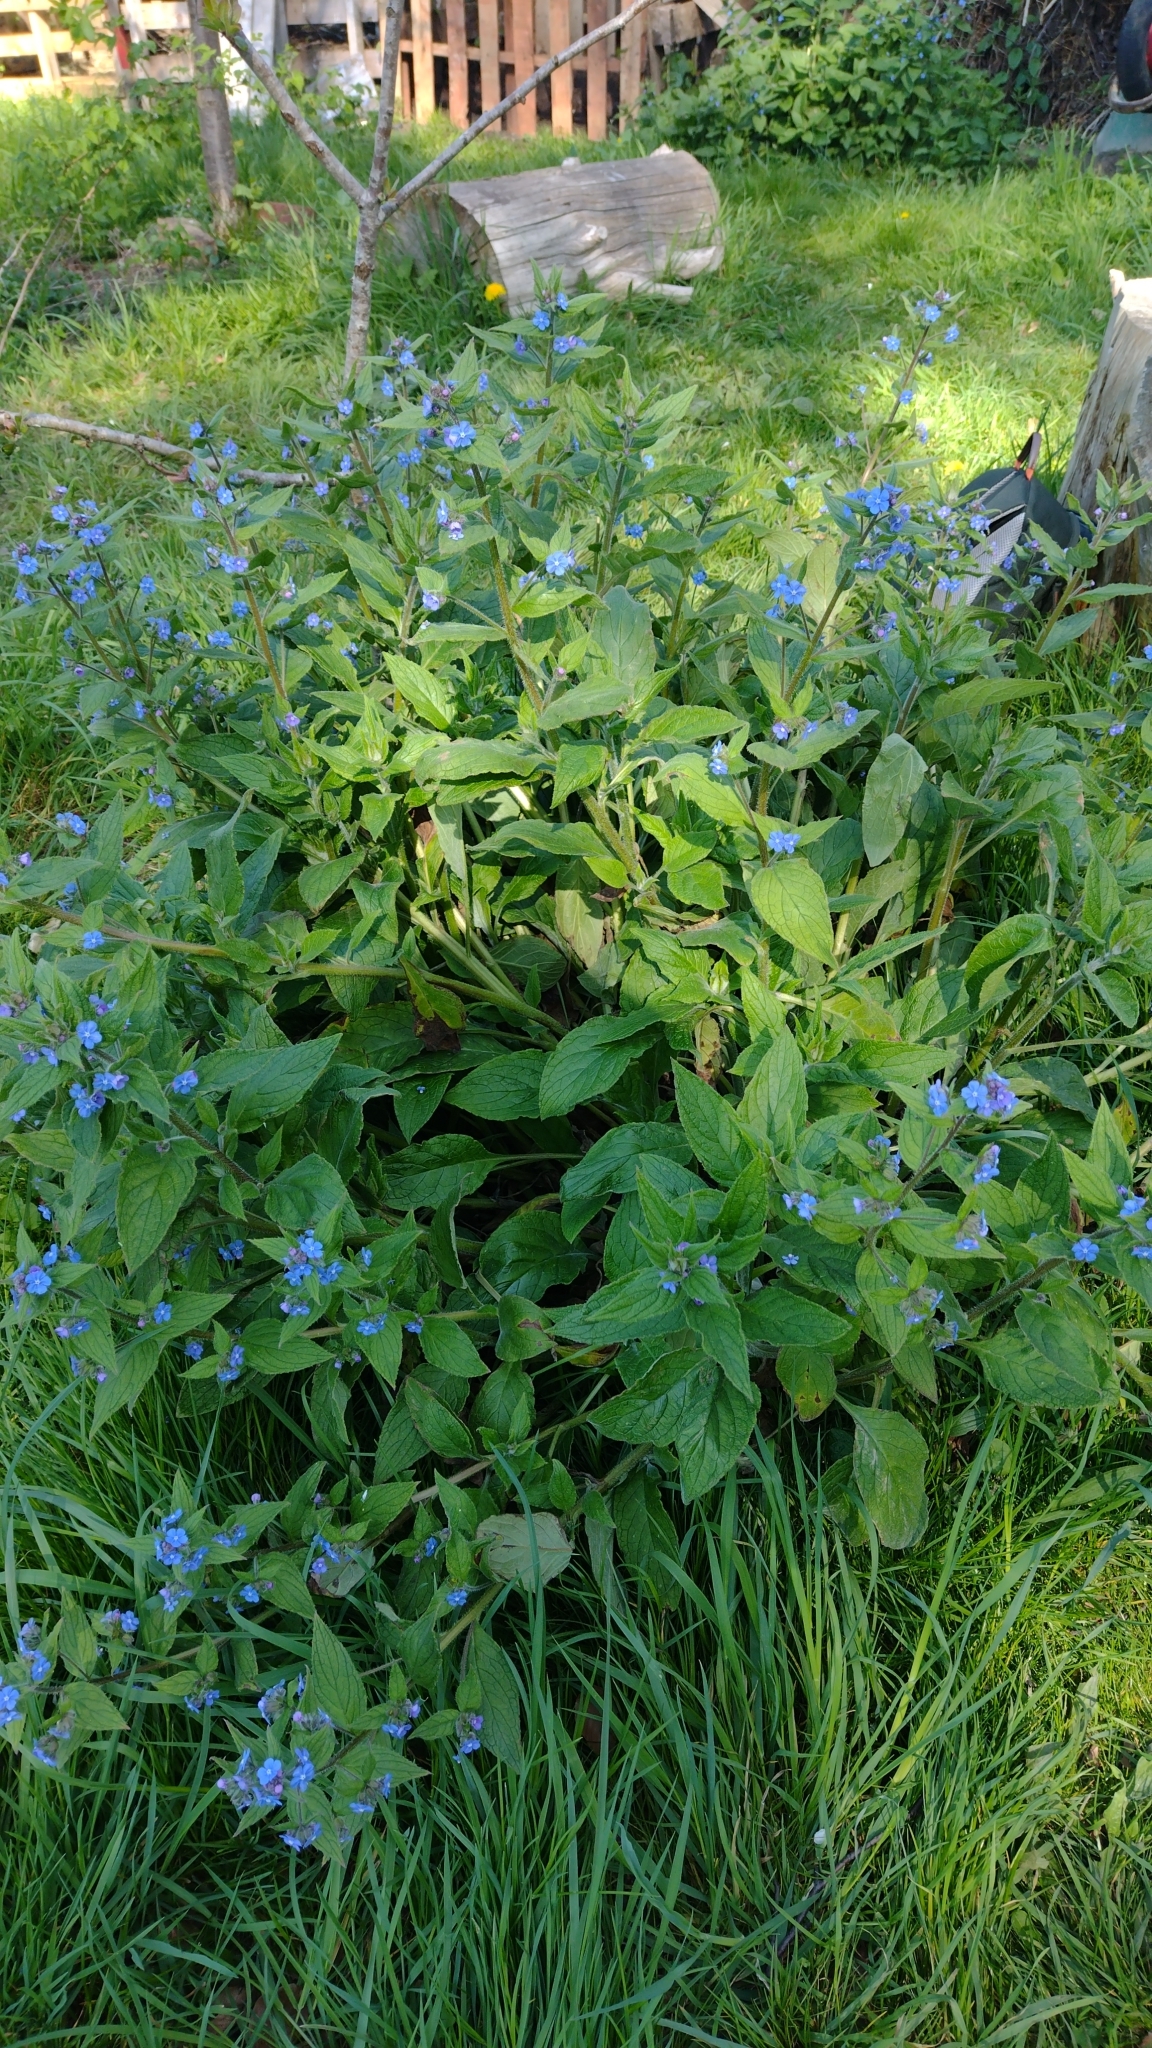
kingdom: Plantae
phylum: Tracheophyta
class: Magnoliopsida
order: Boraginales
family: Boraginaceae
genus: Pentaglottis
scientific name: Pentaglottis sempervirens
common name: Green alkanet
